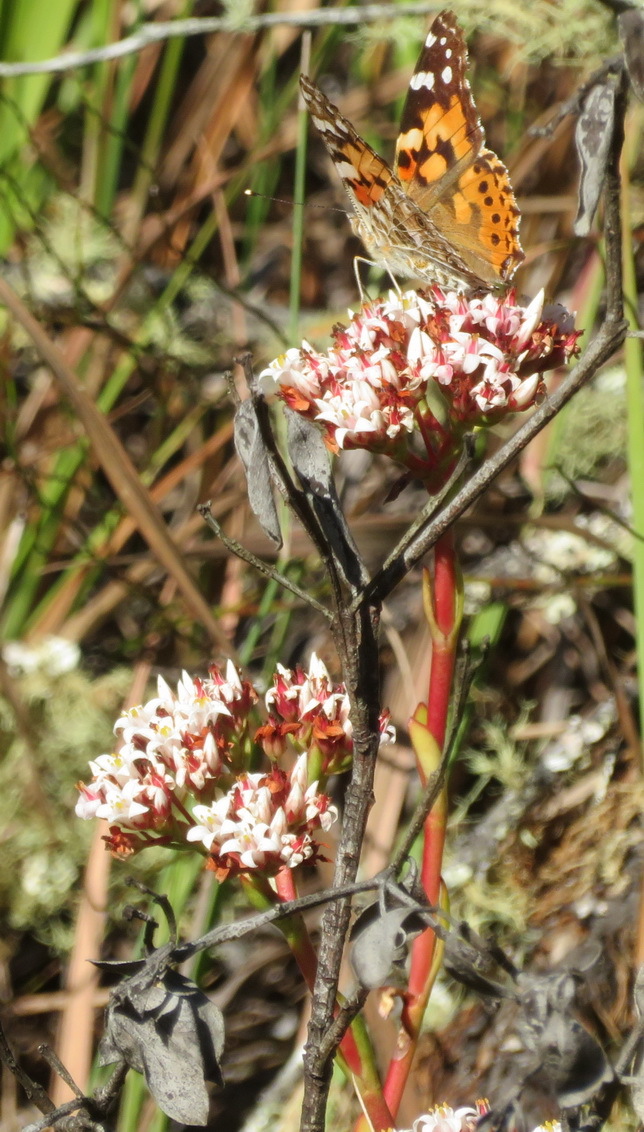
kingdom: Plantae
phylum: Tracheophyta
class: Magnoliopsida
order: Saxifragales
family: Crassulaceae
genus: Crassula
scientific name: Crassula rubricaulis
